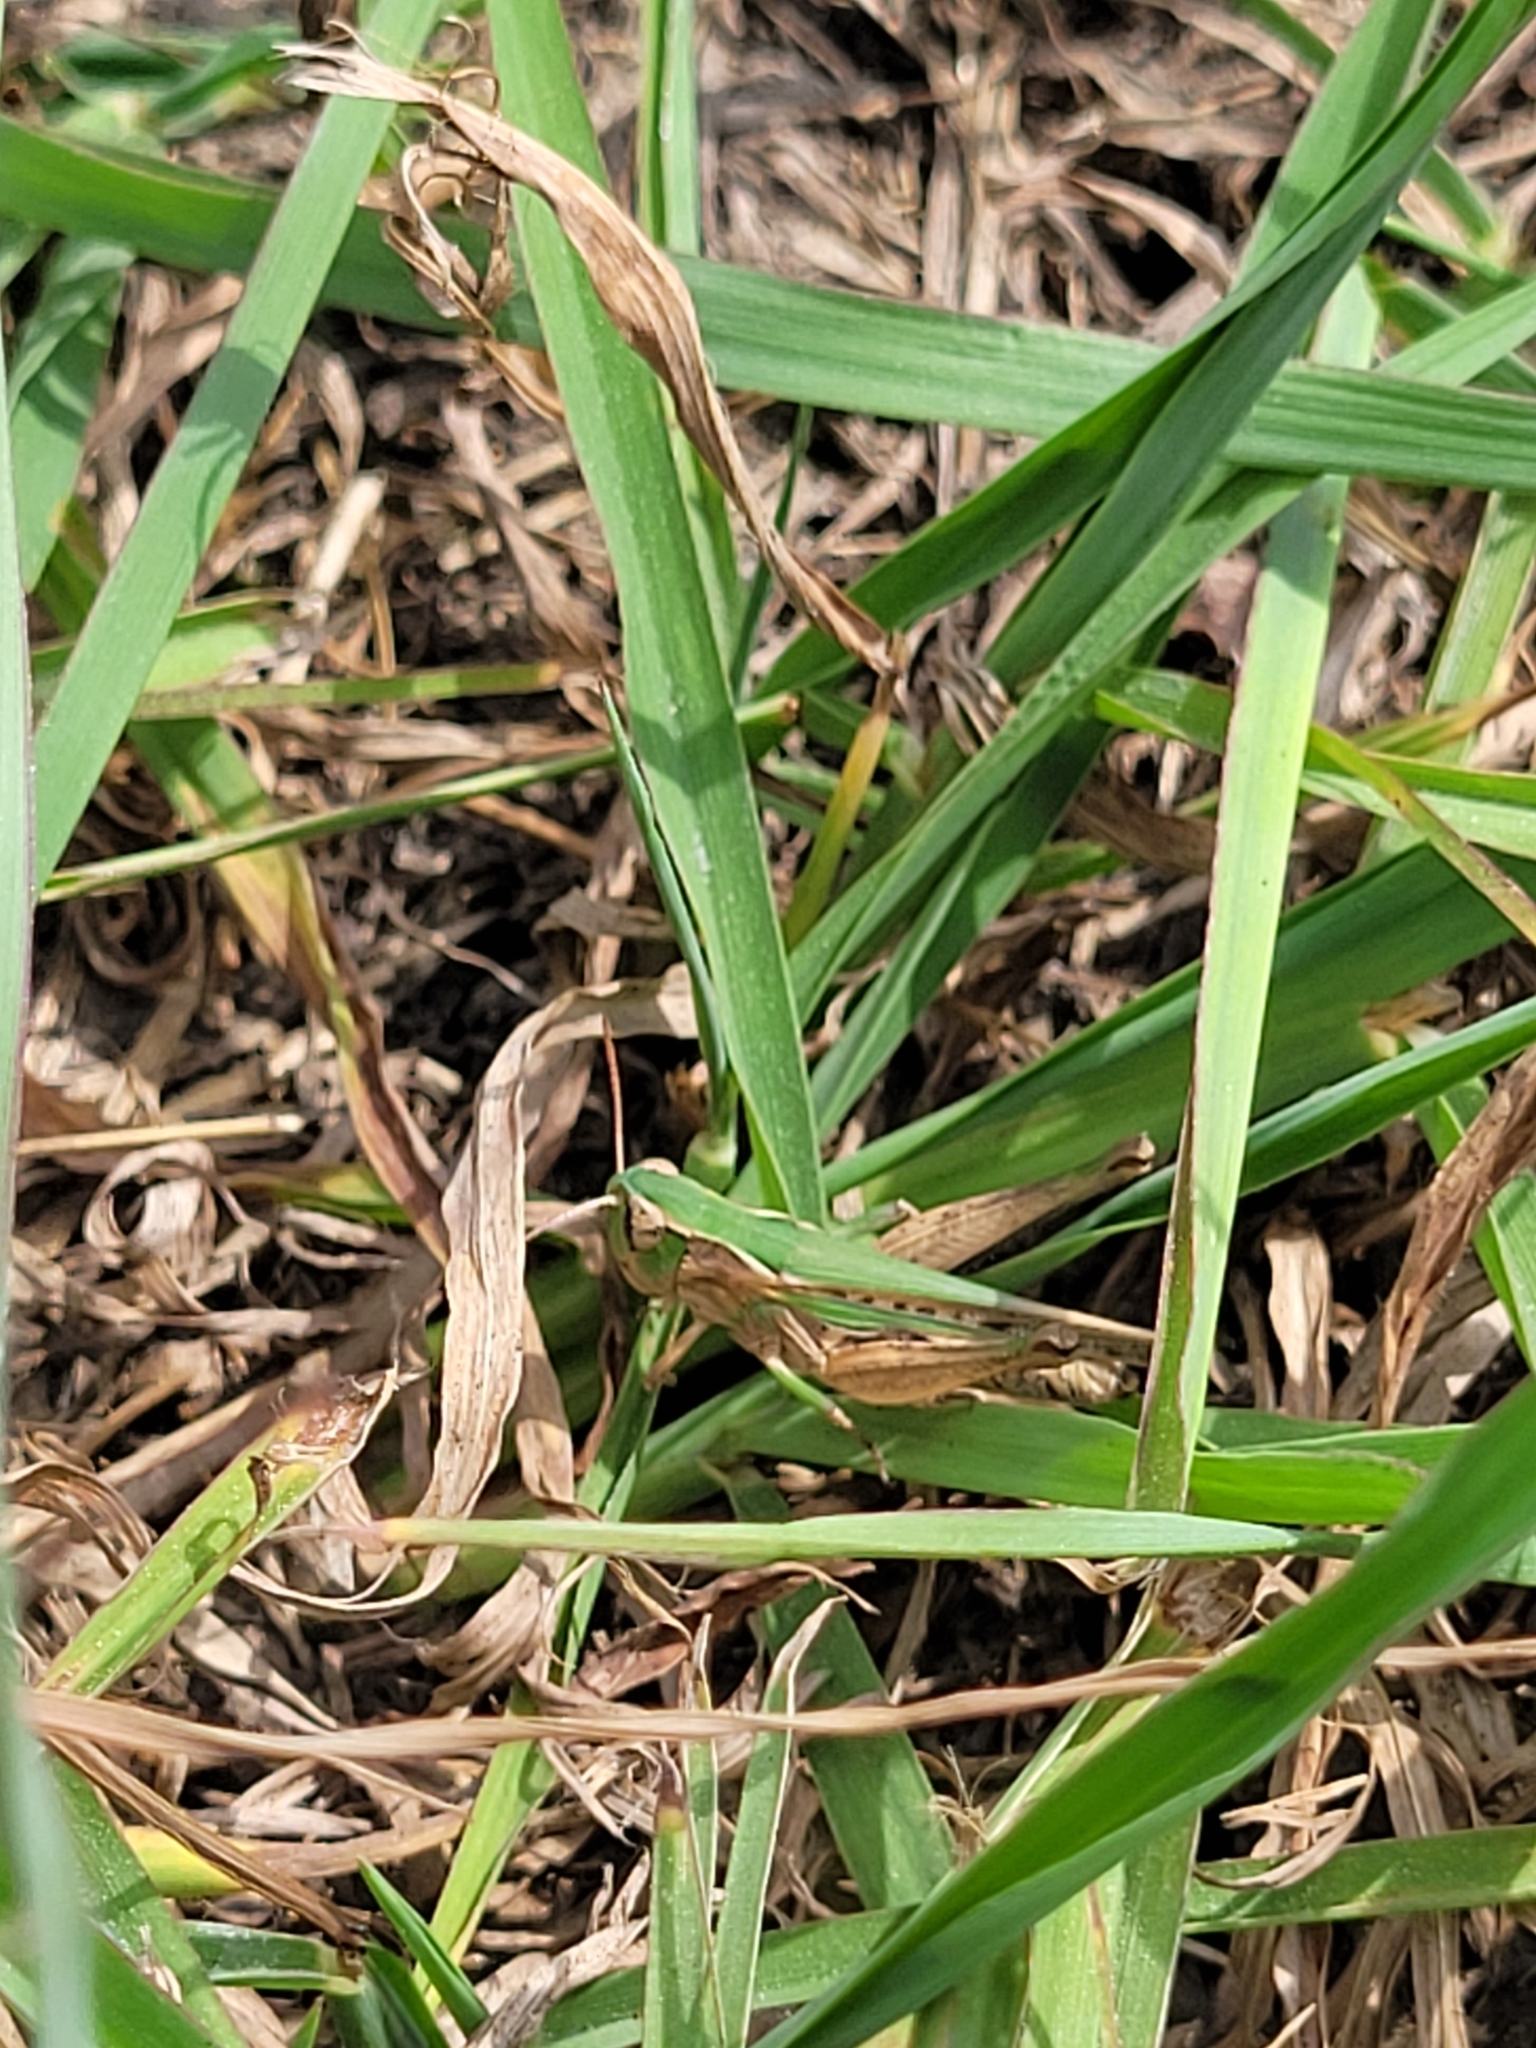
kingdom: Animalia
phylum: Arthropoda
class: Insecta
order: Orthoptera
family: Acrididae
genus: Orphulella
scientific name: Orphulella speciosa
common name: Pasture grasshopper
